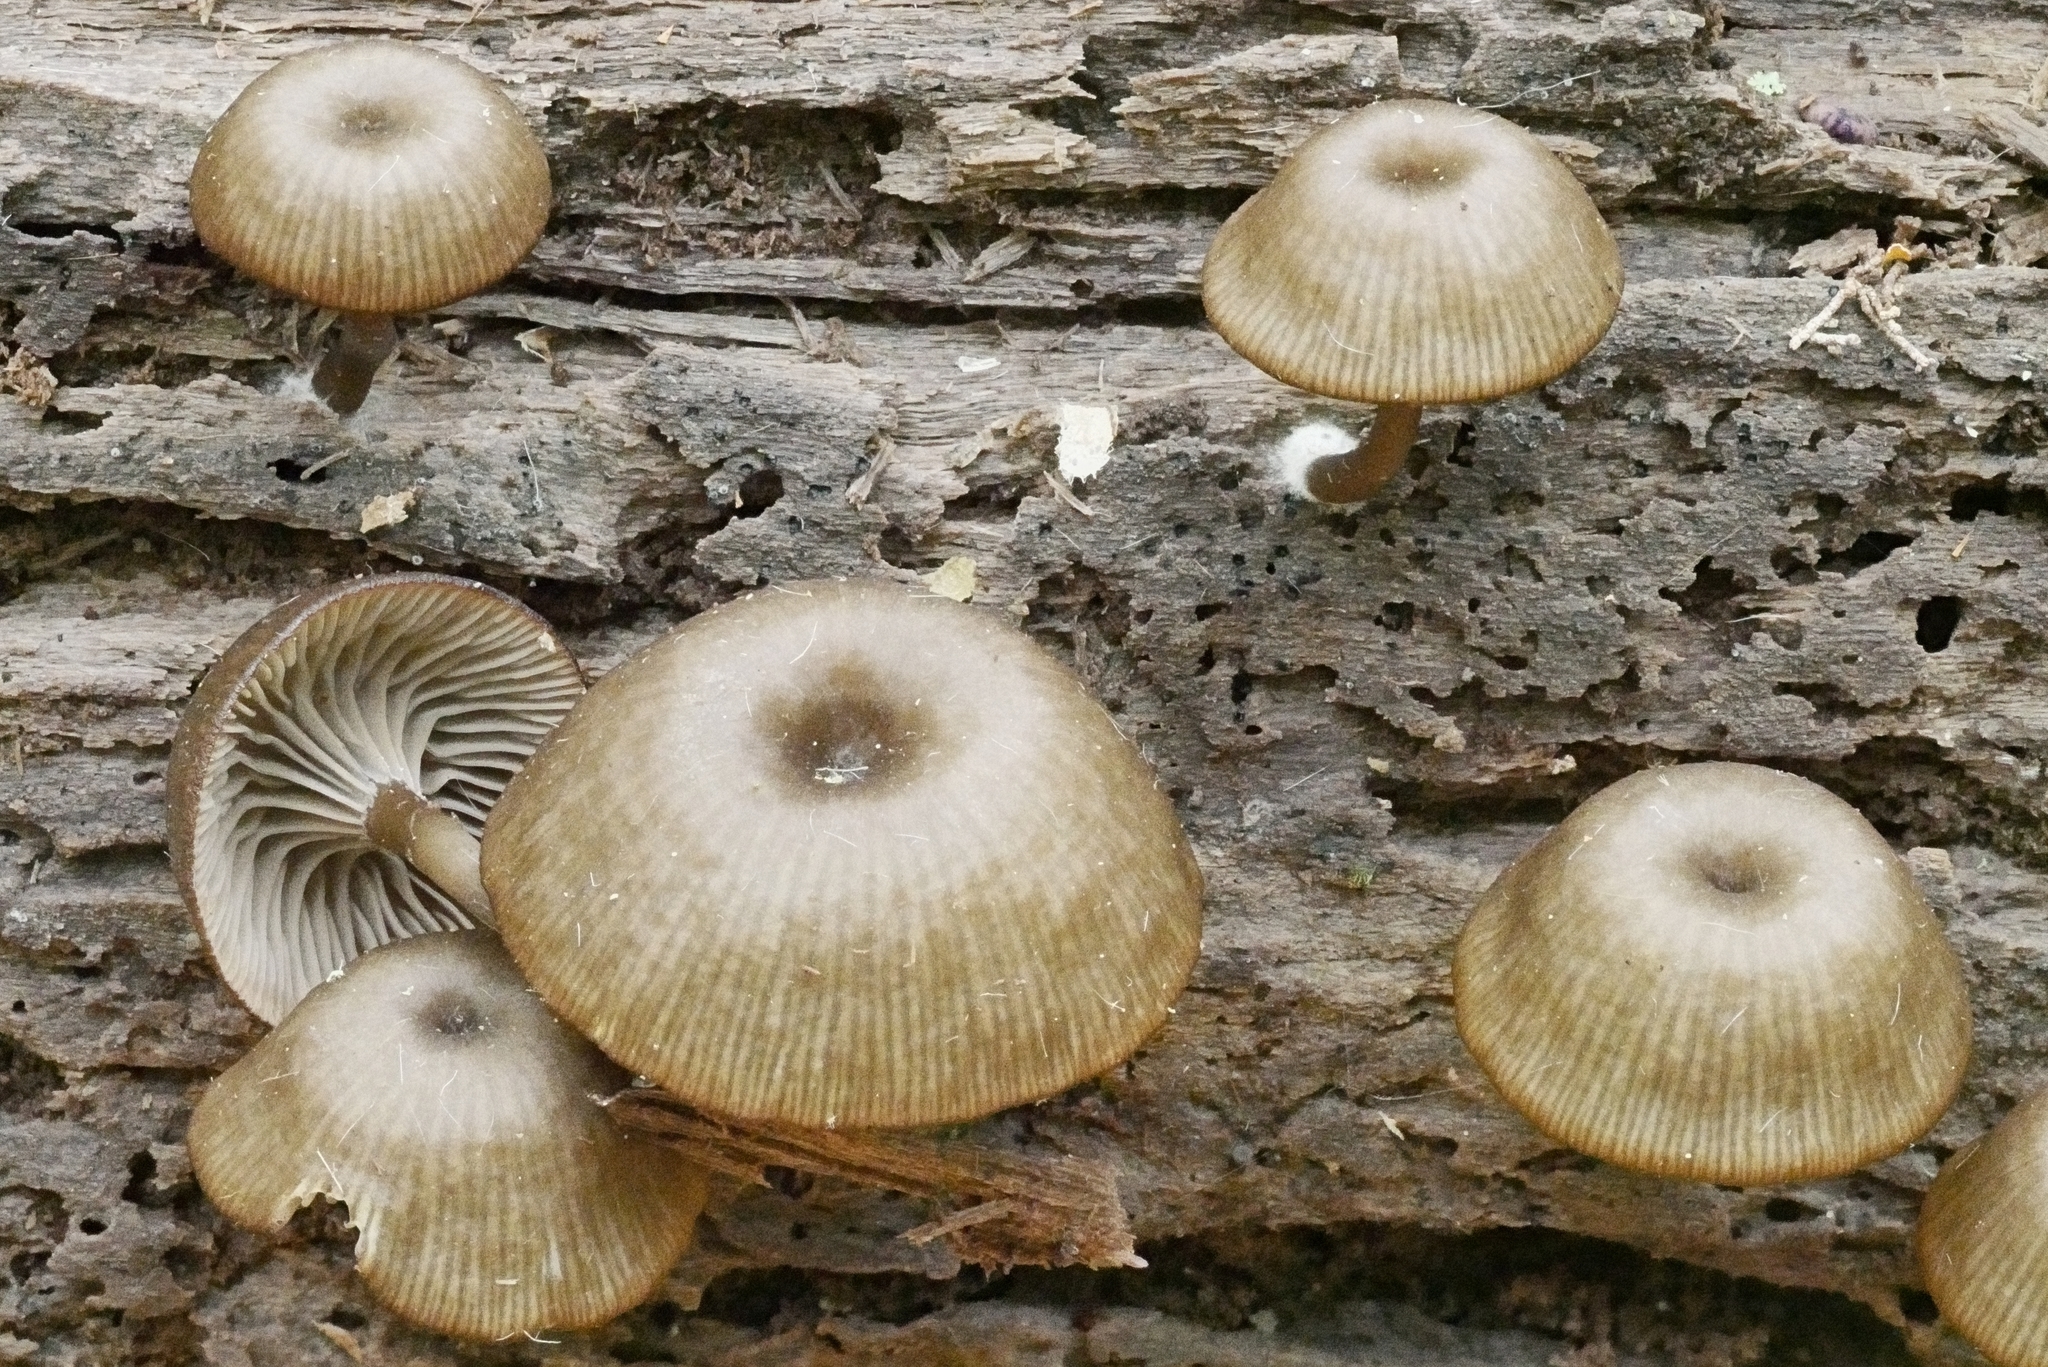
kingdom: Fungi
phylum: Basidiomycota
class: Agaricomycetes
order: Agaricales
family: Hygrophoraceae
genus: Arrhenia
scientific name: Arrhenia epichysium
